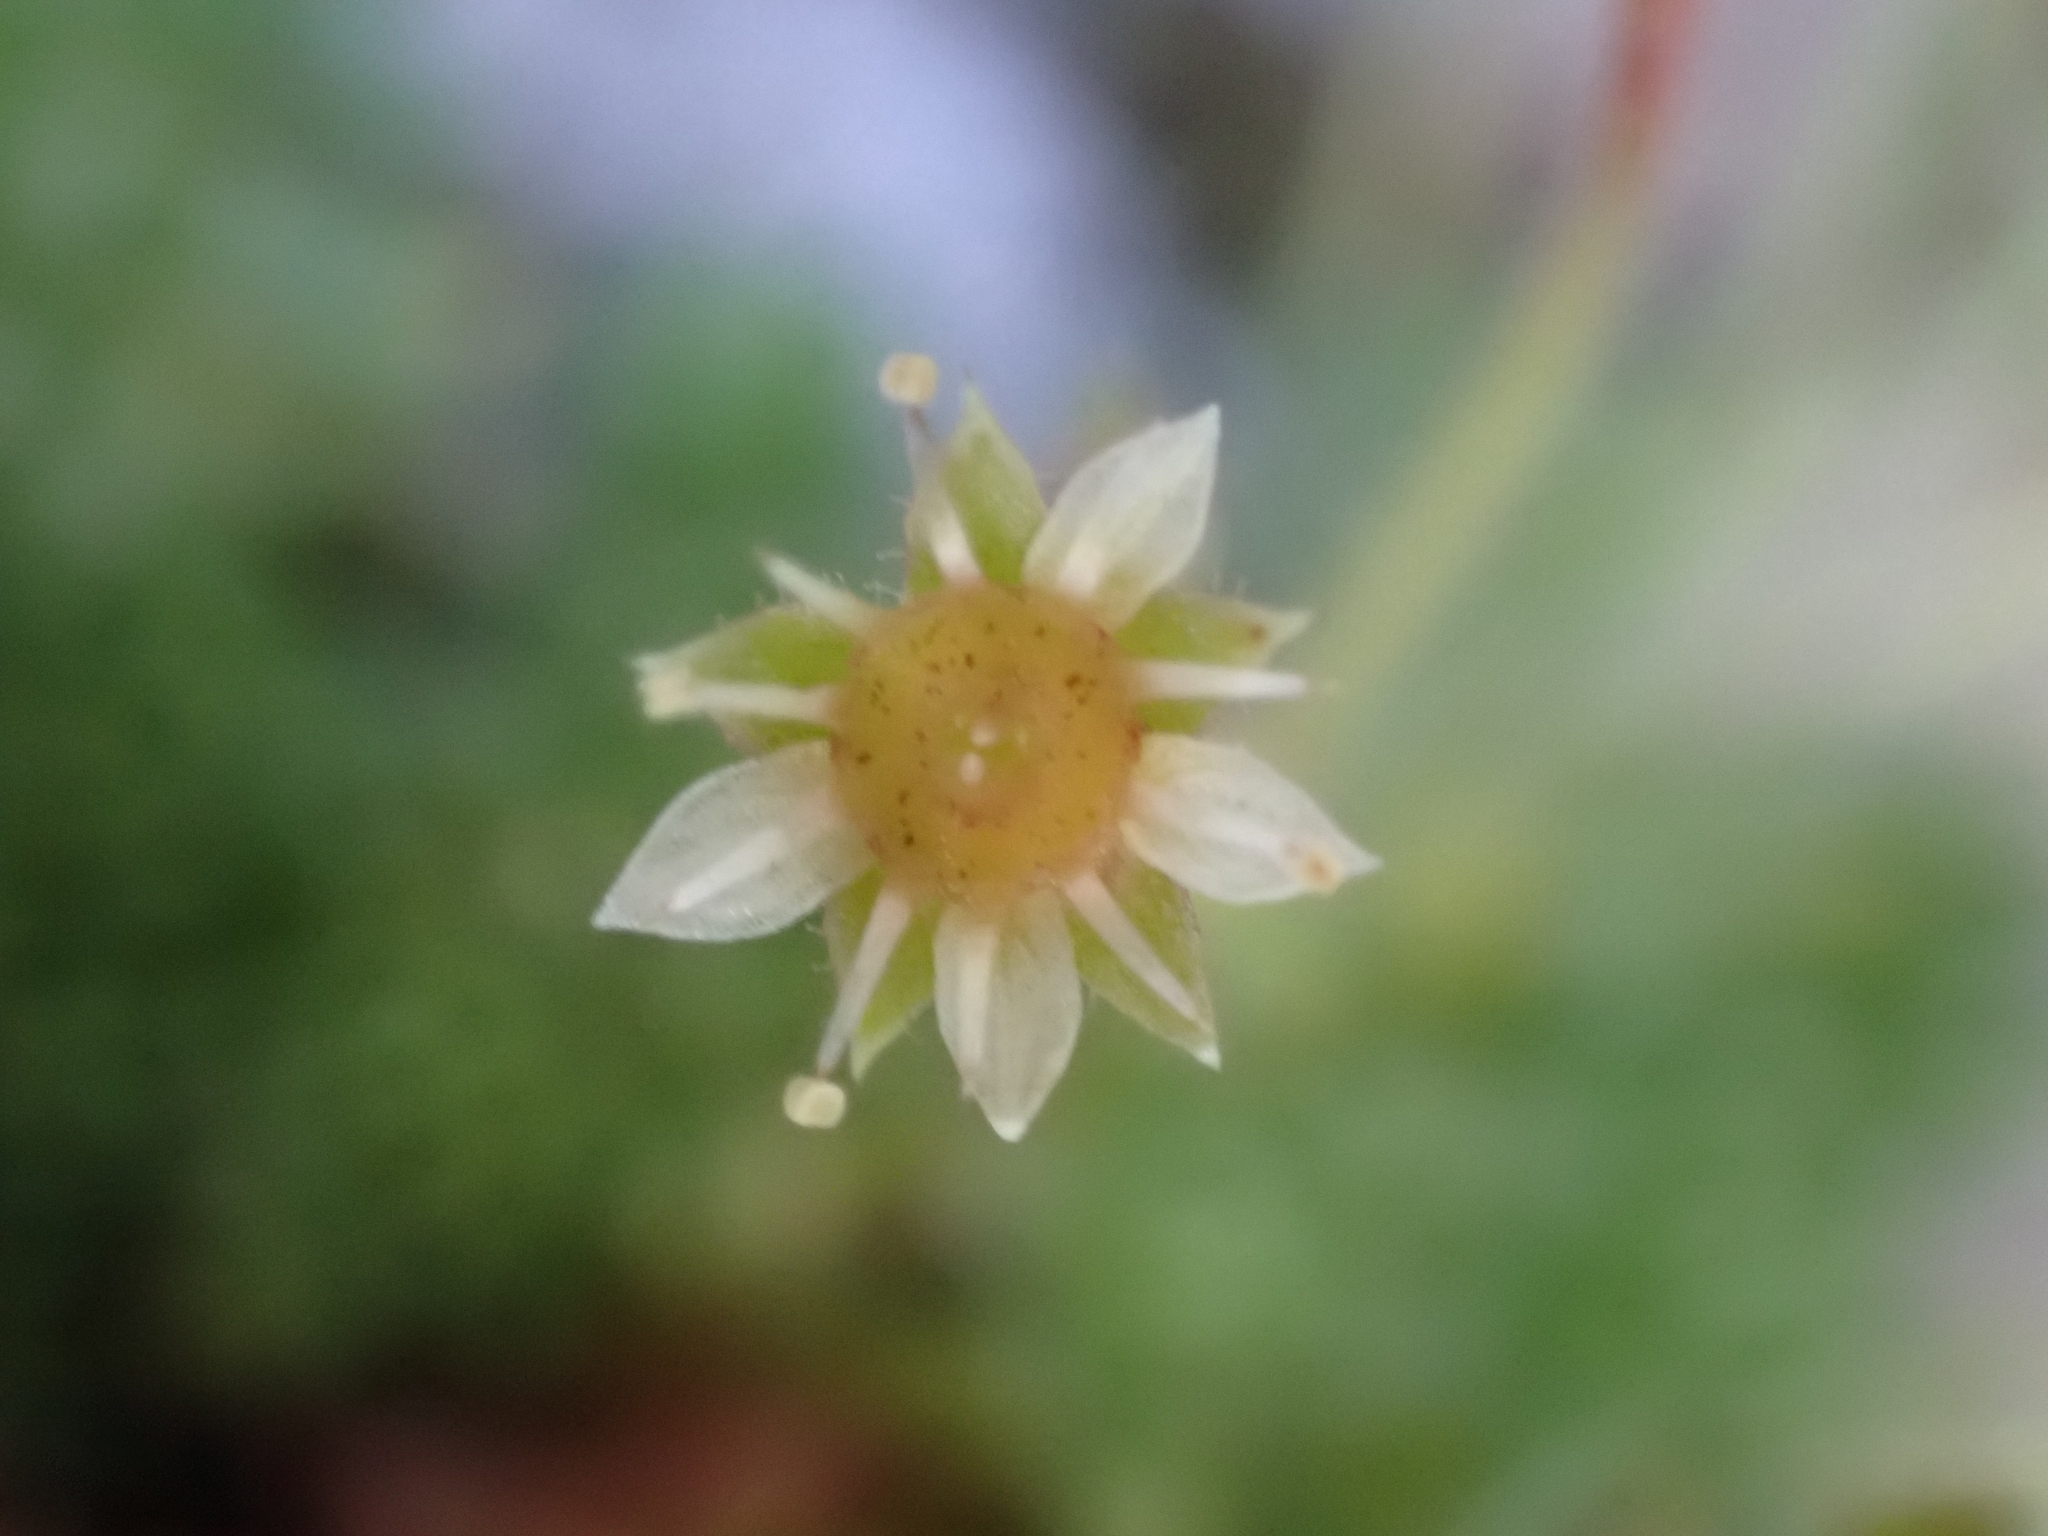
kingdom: Plantae
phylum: Tracheophyta
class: Magnoliopsida
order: Saxifragales
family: Saxifragaceae
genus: Saxifraga
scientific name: Saxifraga sedoides
